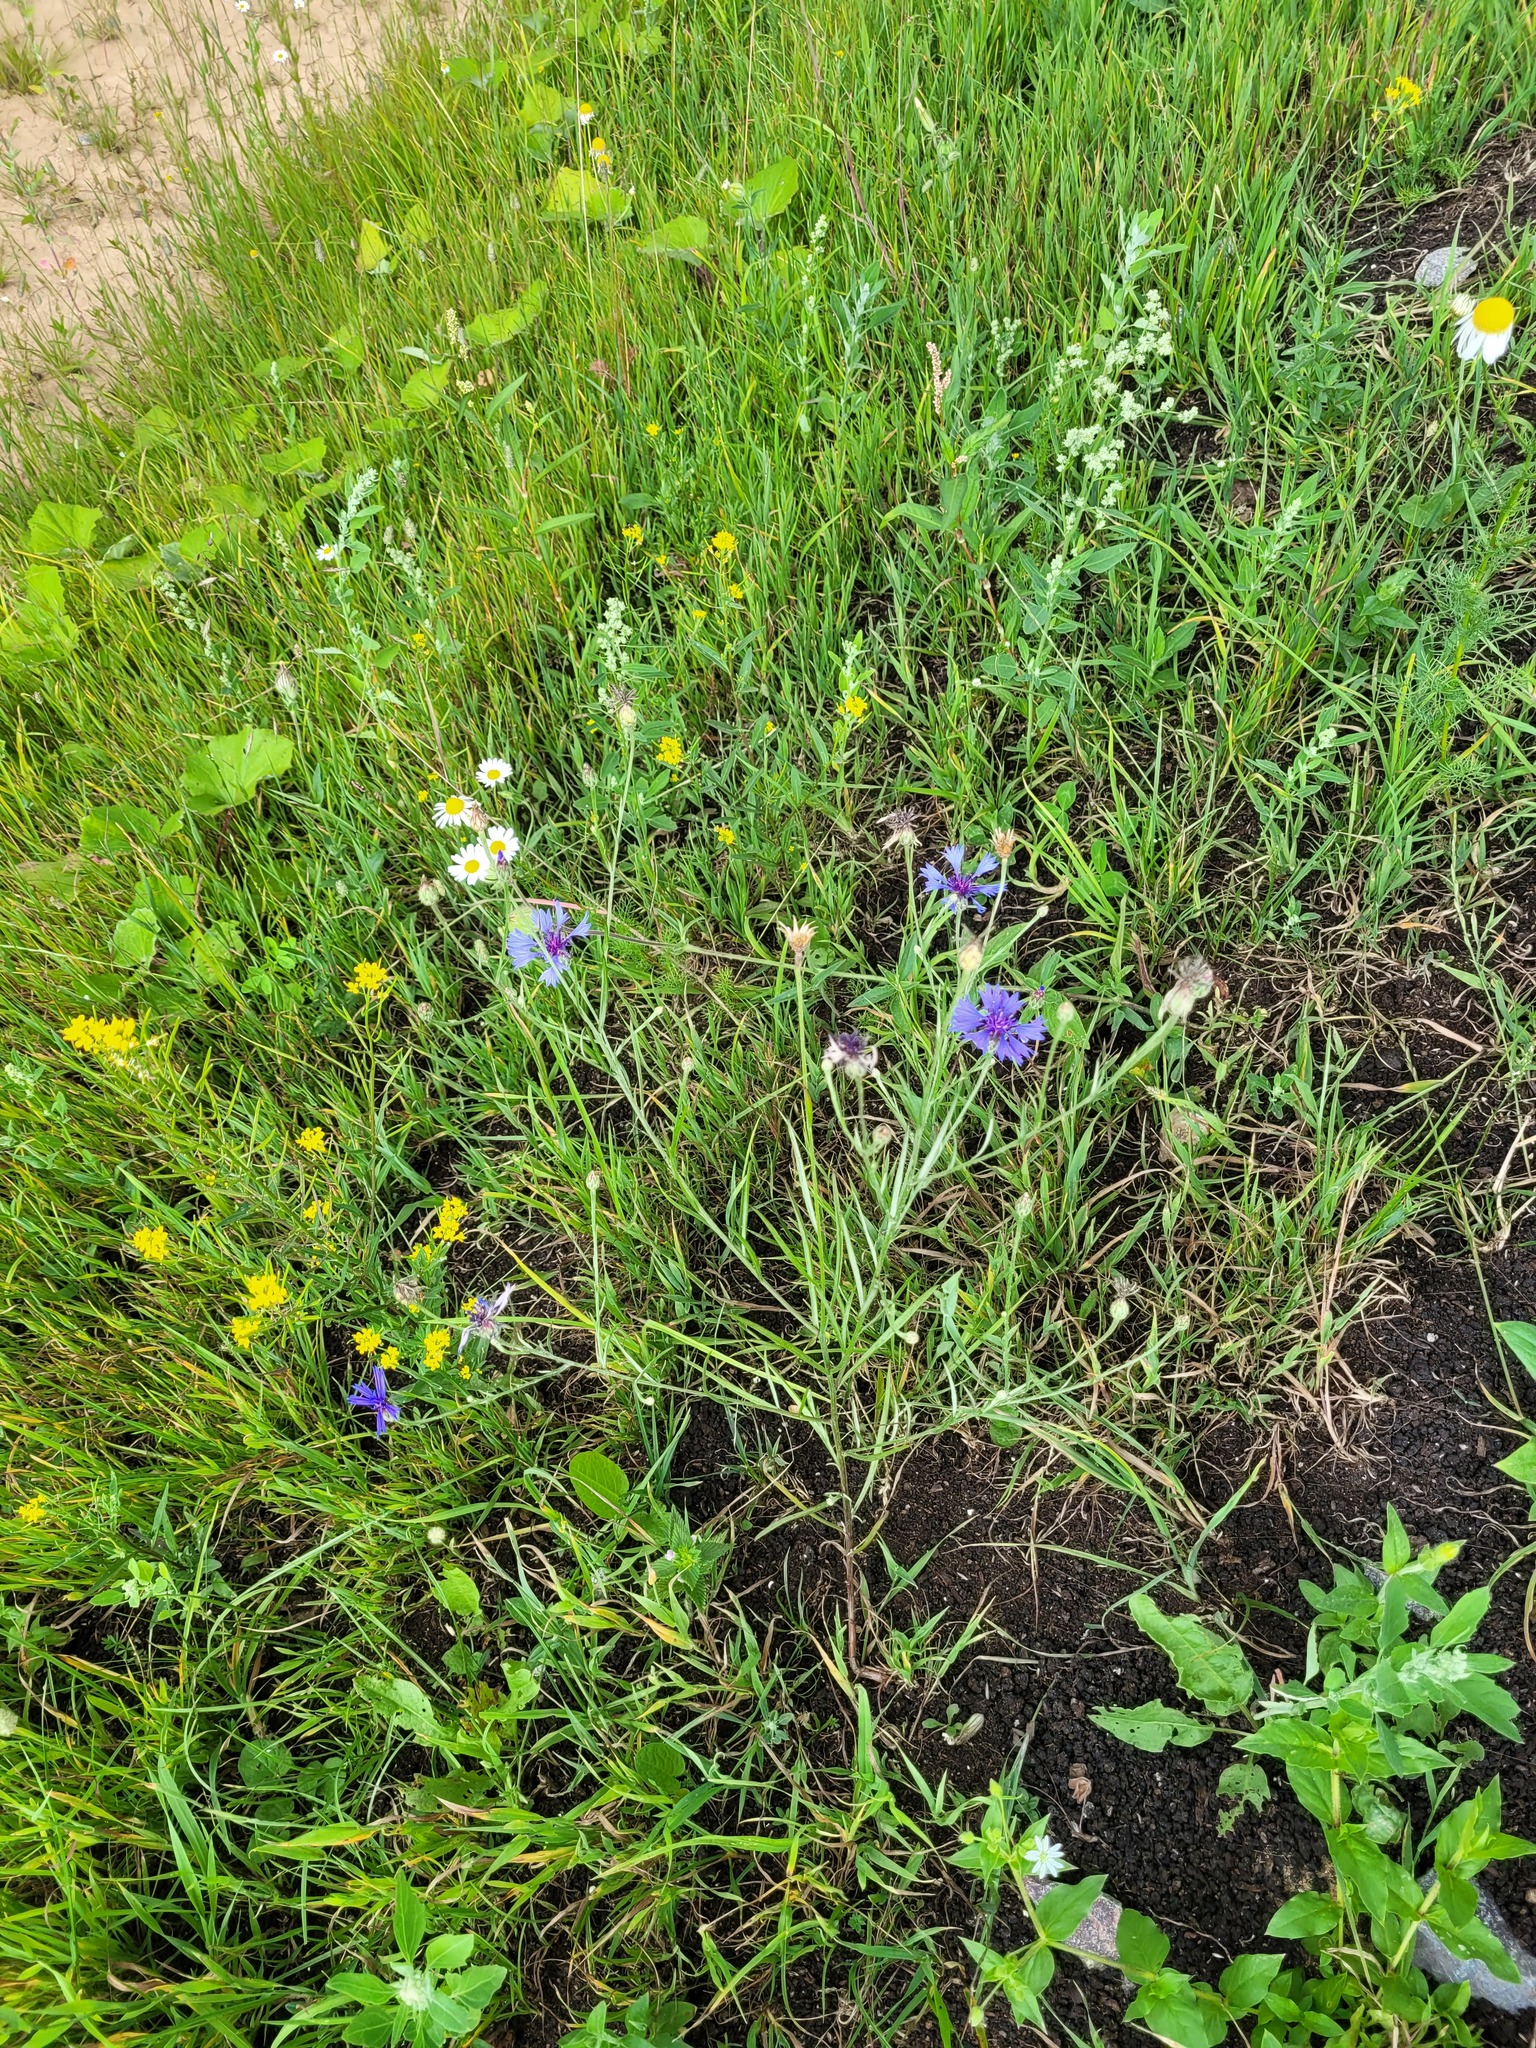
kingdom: Plantae
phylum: Tracheophyta
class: Magnoliopsida
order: Asterales
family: Asteraceae
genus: Centaurea
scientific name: Centaurea cyanus
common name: Cornflower
